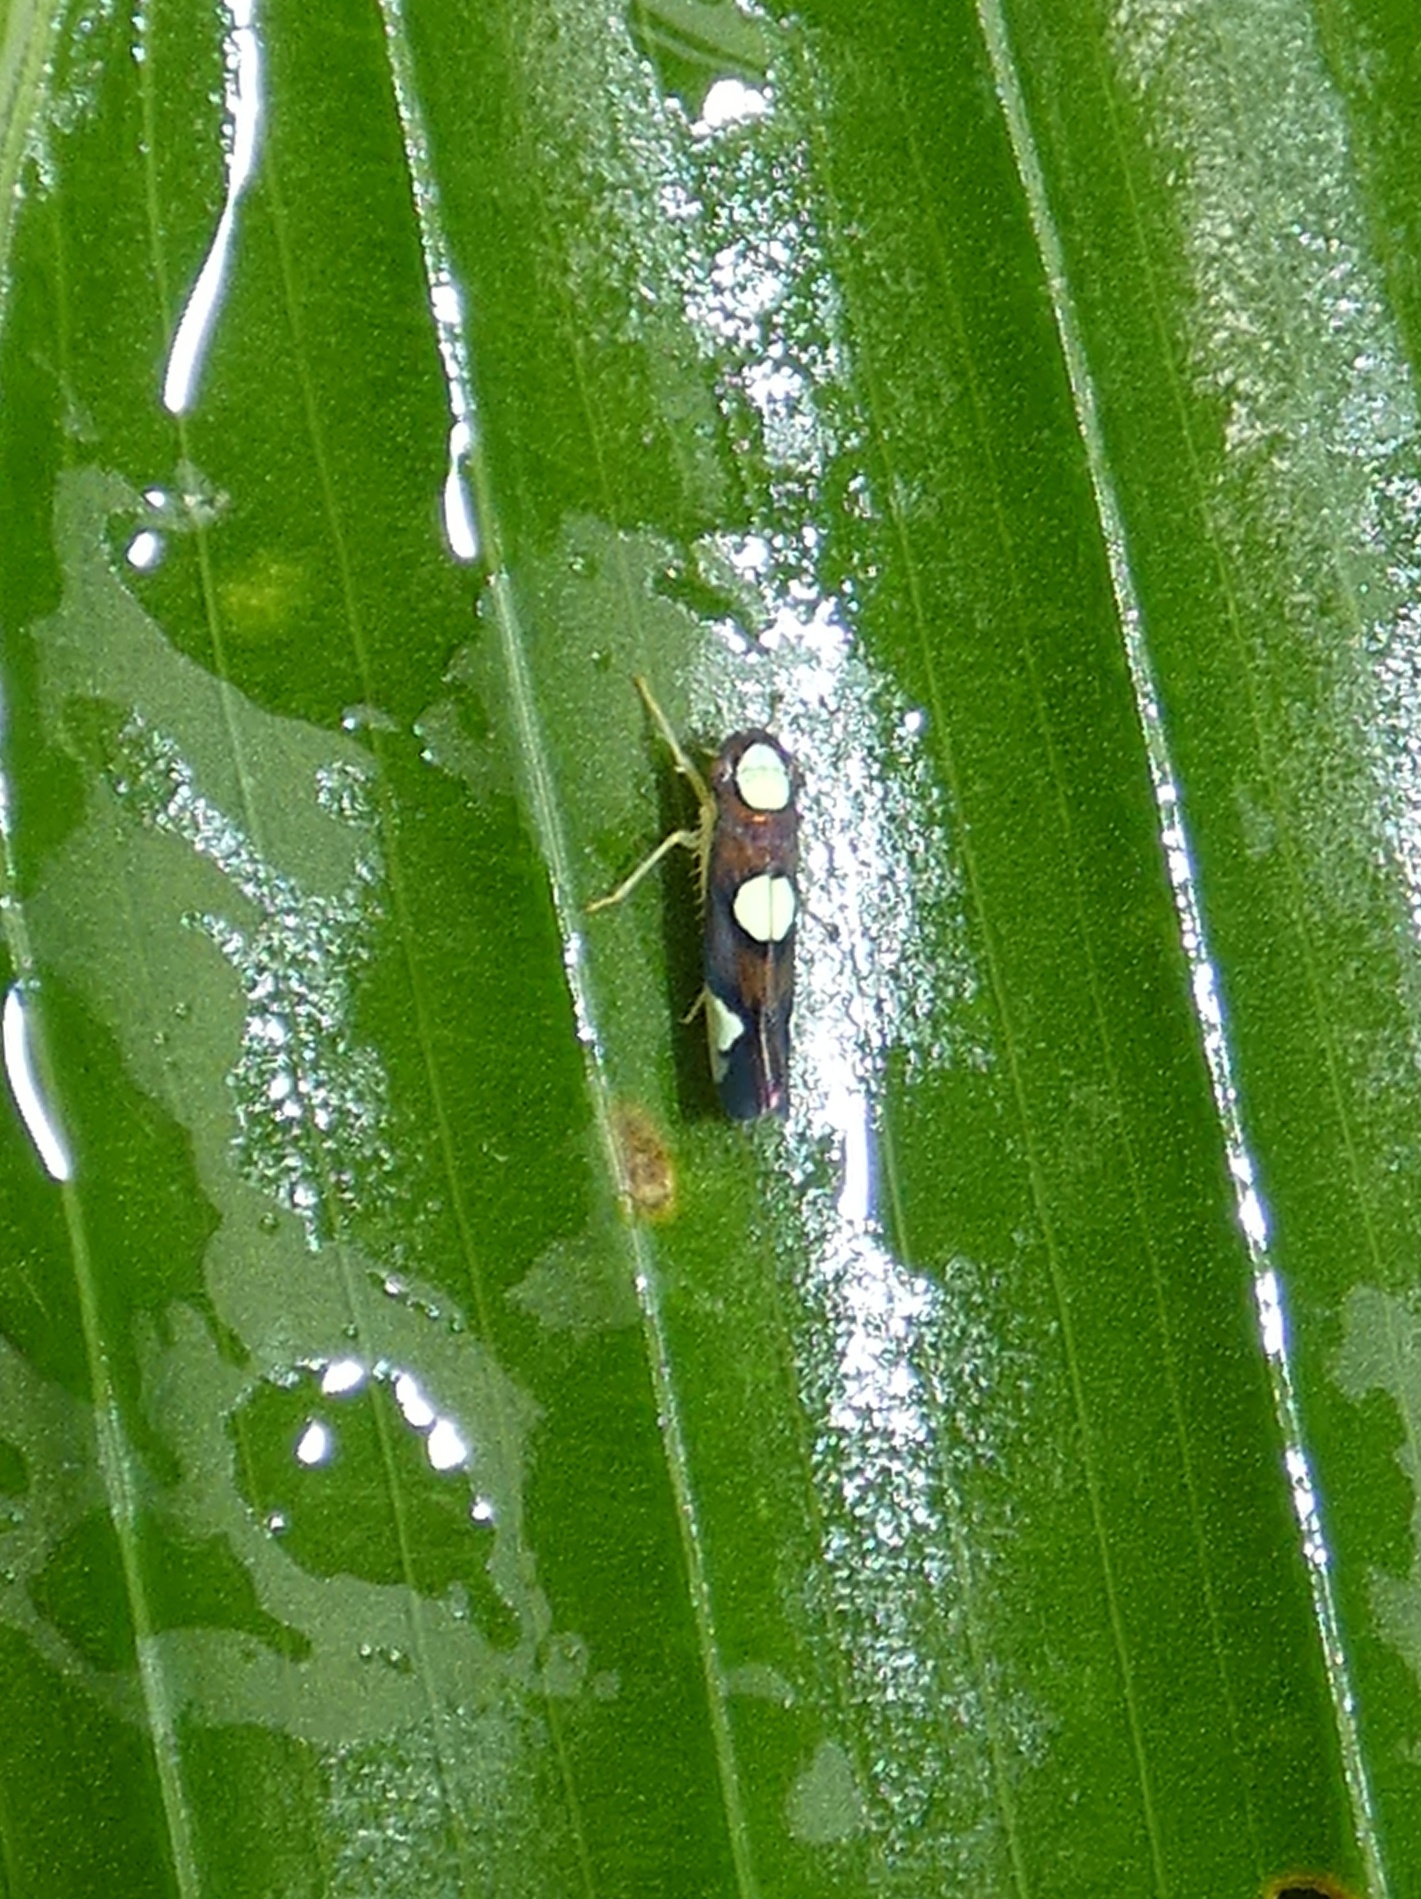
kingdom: Animalia
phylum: Arthropoda
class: Insecta
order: Hemiptera
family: Cicadellidae
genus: Erythrogonia
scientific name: Erythrogonia quadriplagiata
